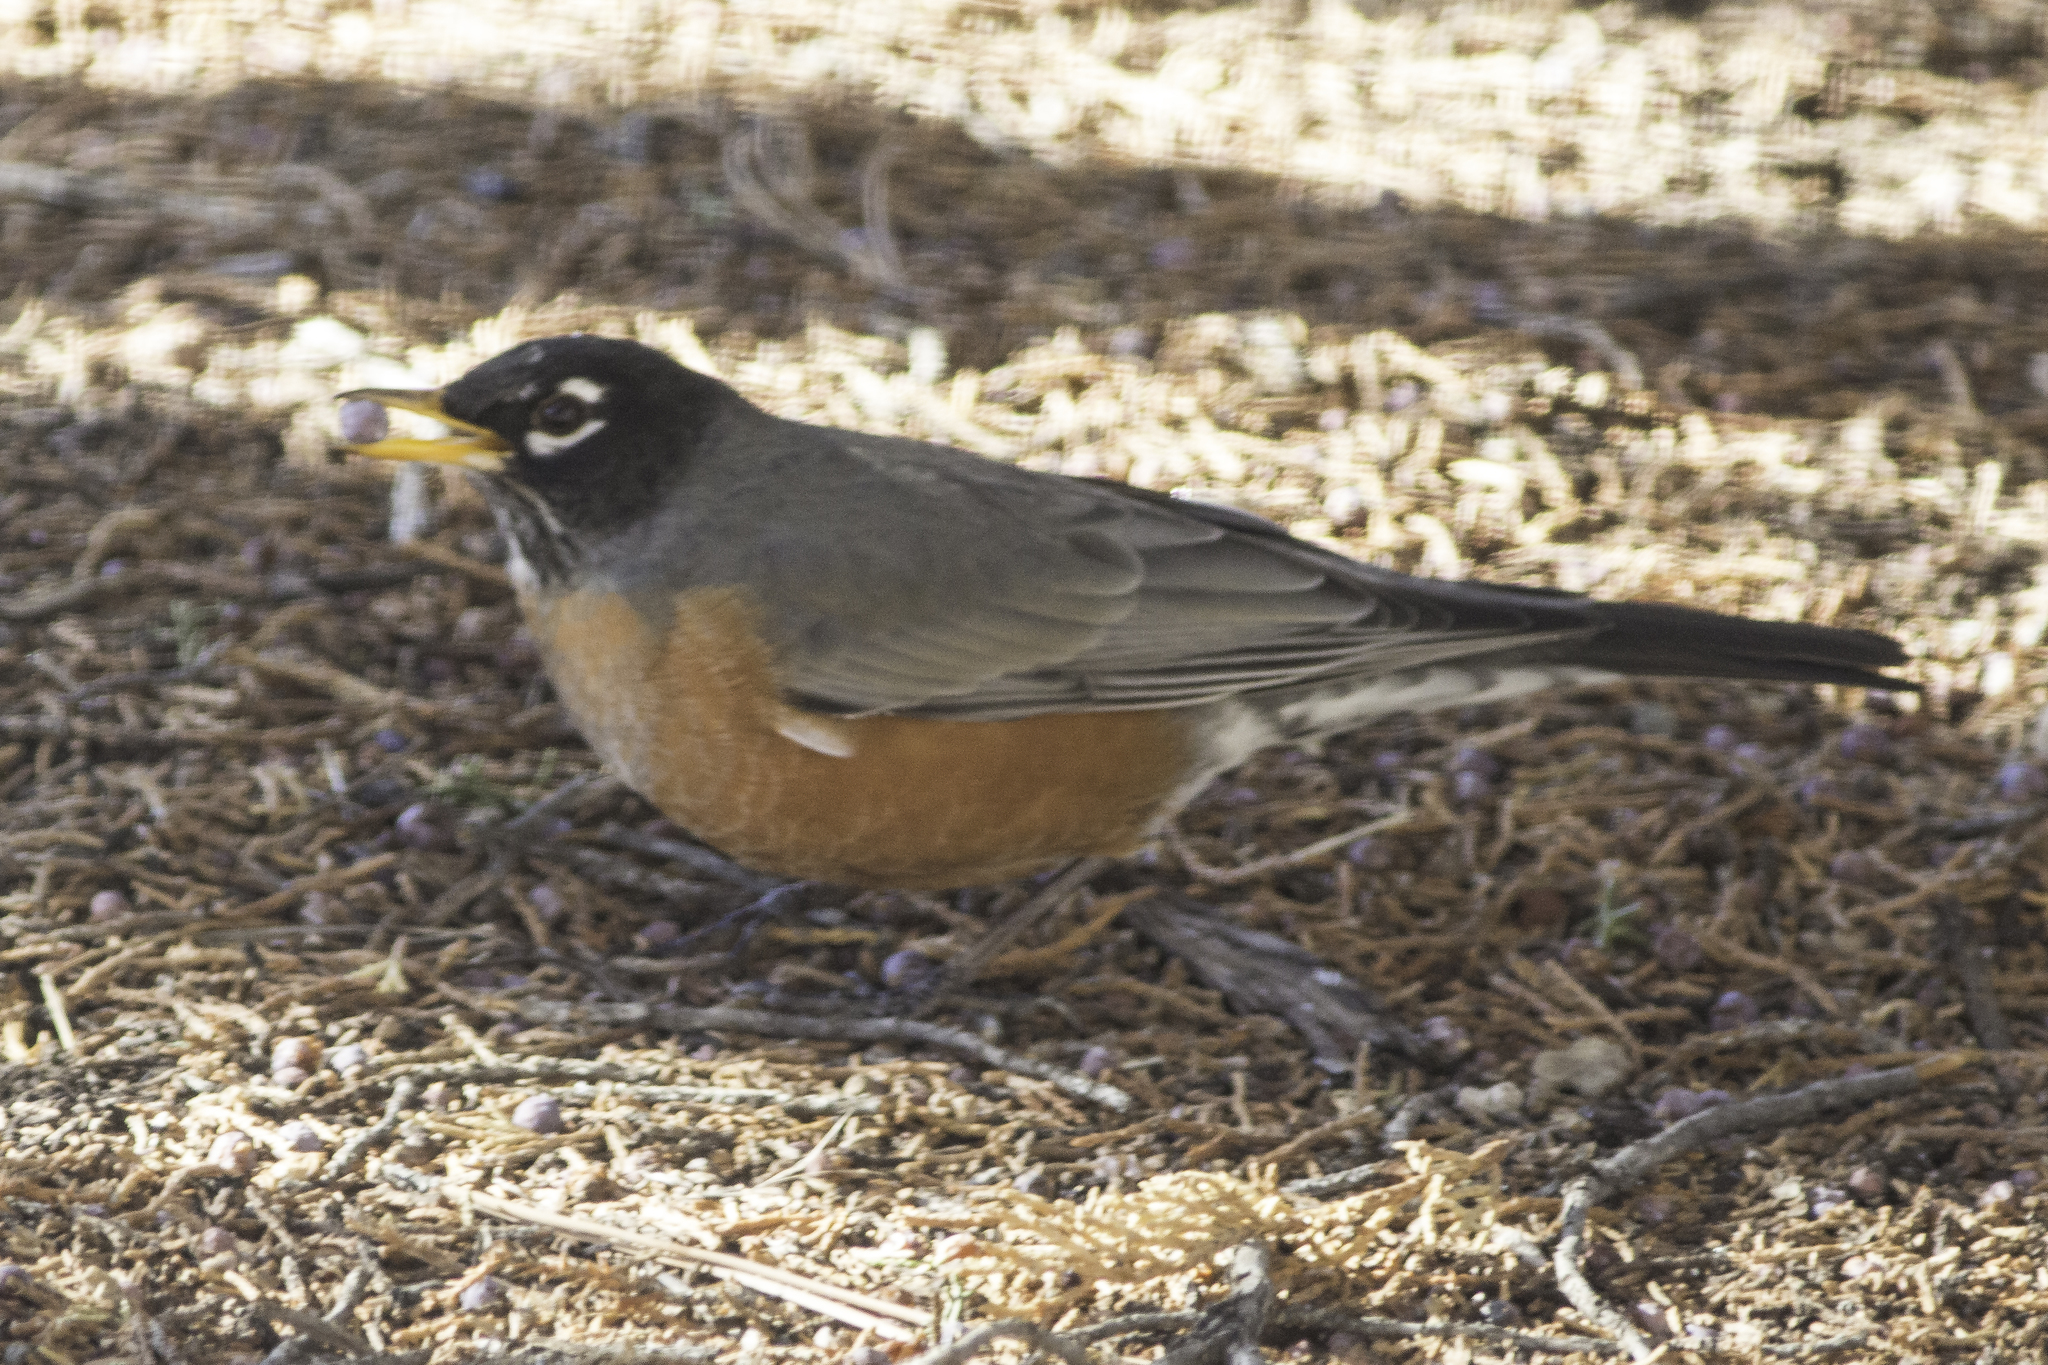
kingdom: Animalia
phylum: Chordata
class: Aves
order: Passeriformes
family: Turdidae
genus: Turdus
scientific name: Turdus migratorius
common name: American robin
